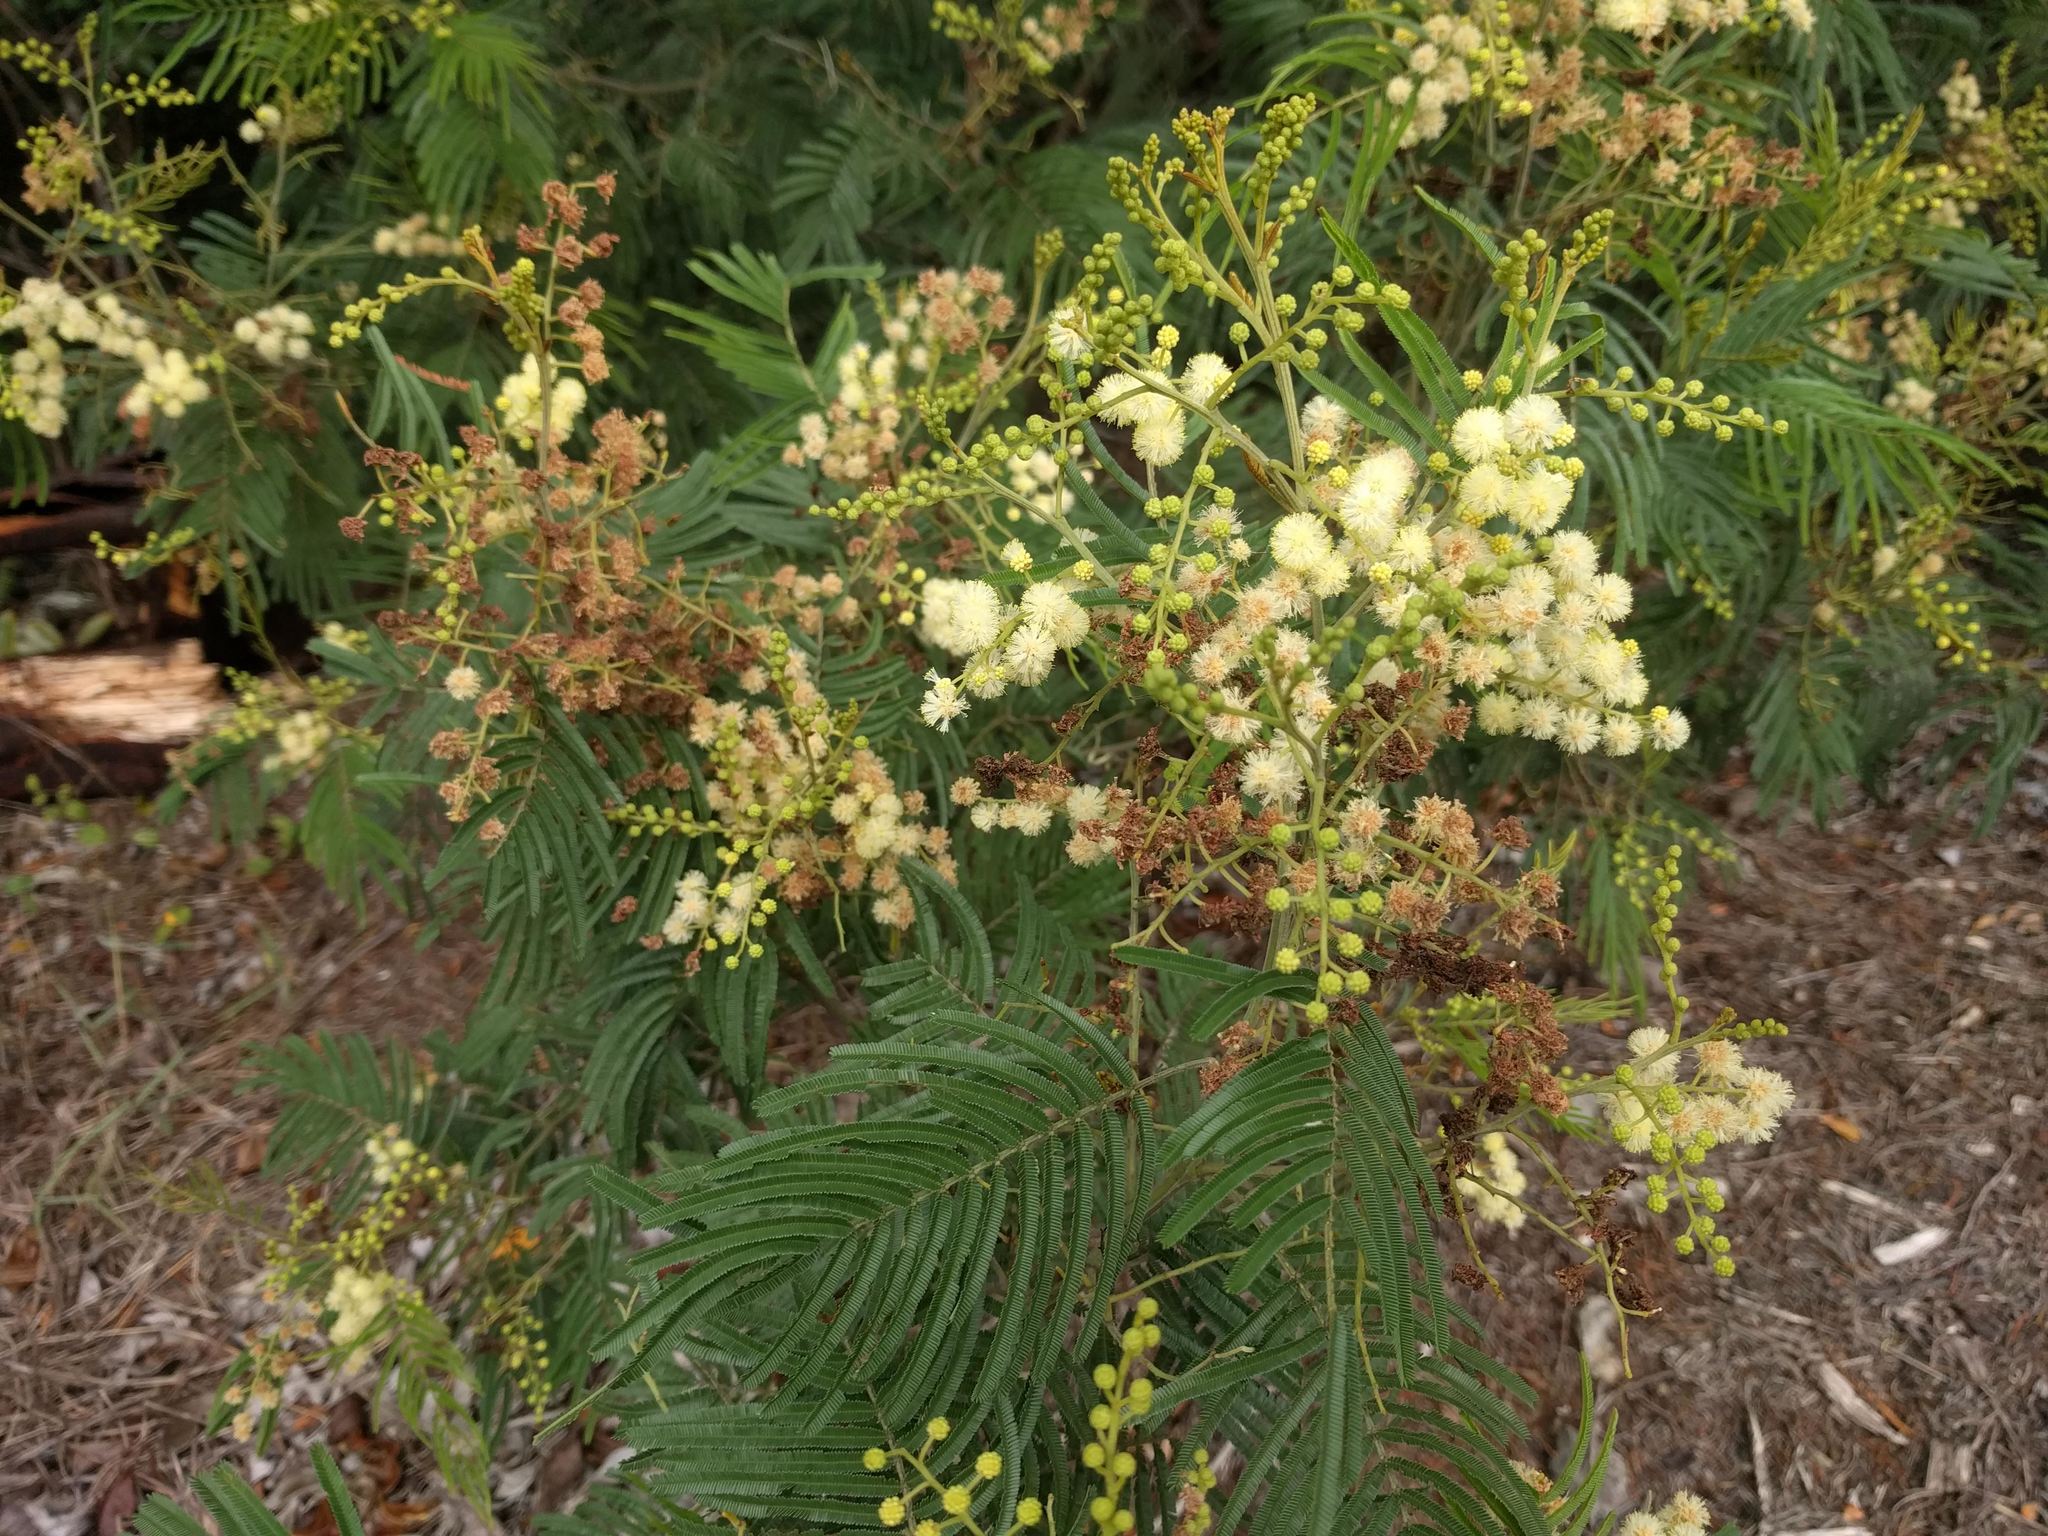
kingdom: Plantae
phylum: Tracheophyta
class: Magnoliopsida
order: Fabales
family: Fabaceae
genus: Acacia
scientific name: Acacia mearnsii
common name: Black wattle
